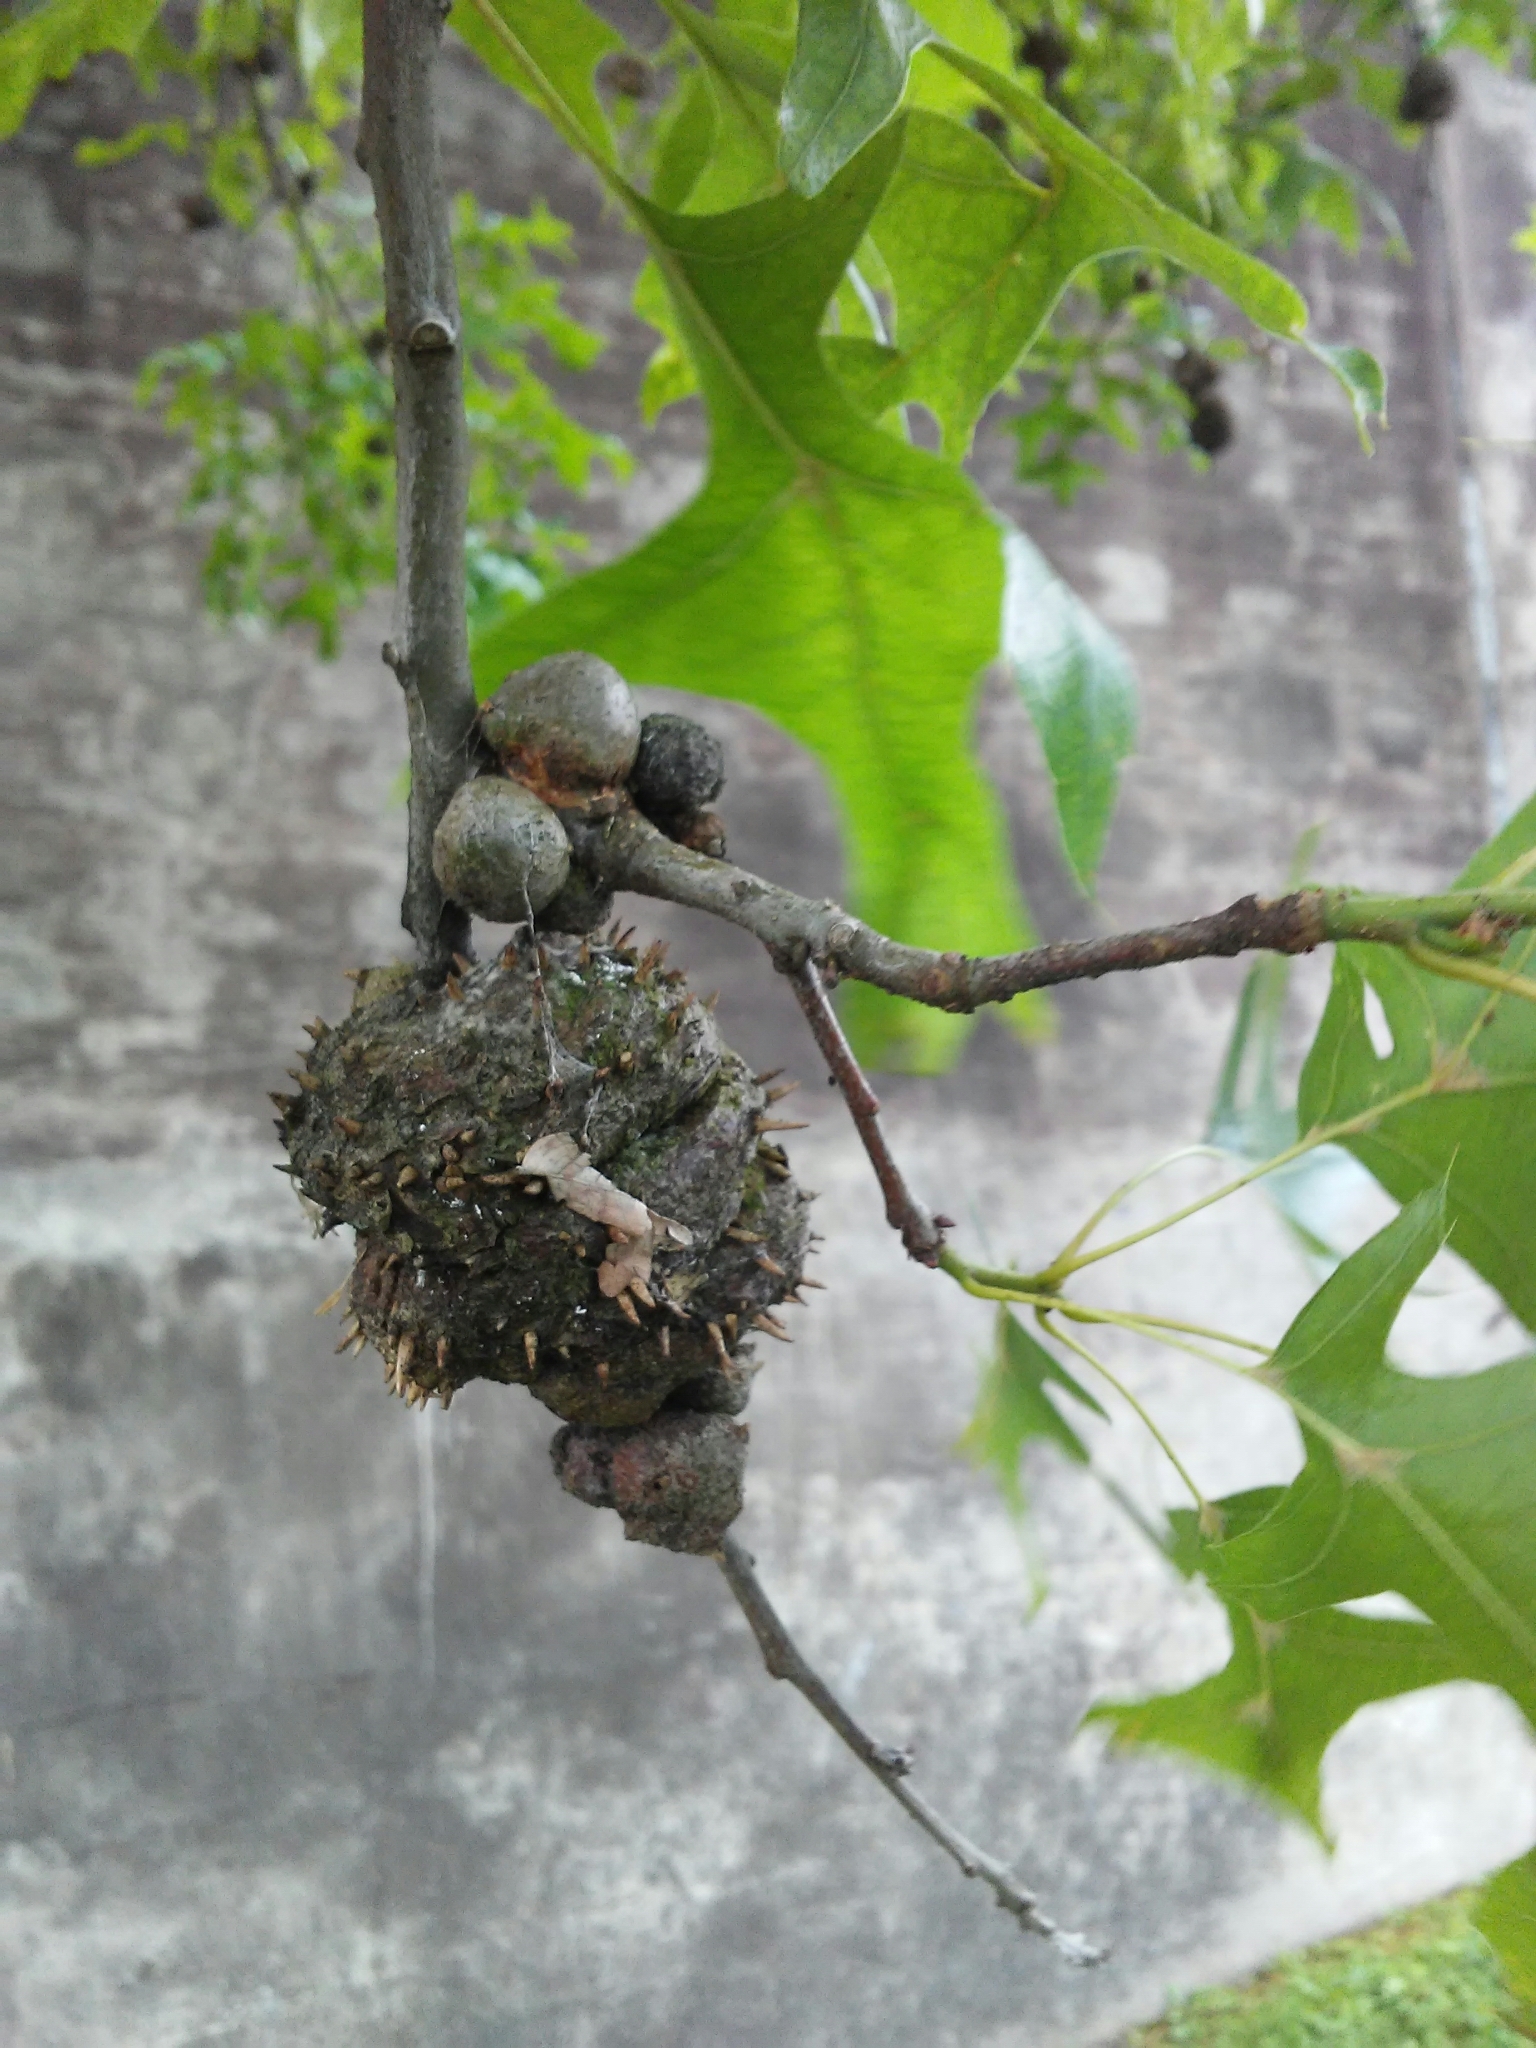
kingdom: Animalia
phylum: Arthropoda
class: Insecta
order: Hymenoptera
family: Cynipidae
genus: Callirhytis
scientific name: Callirhytis
